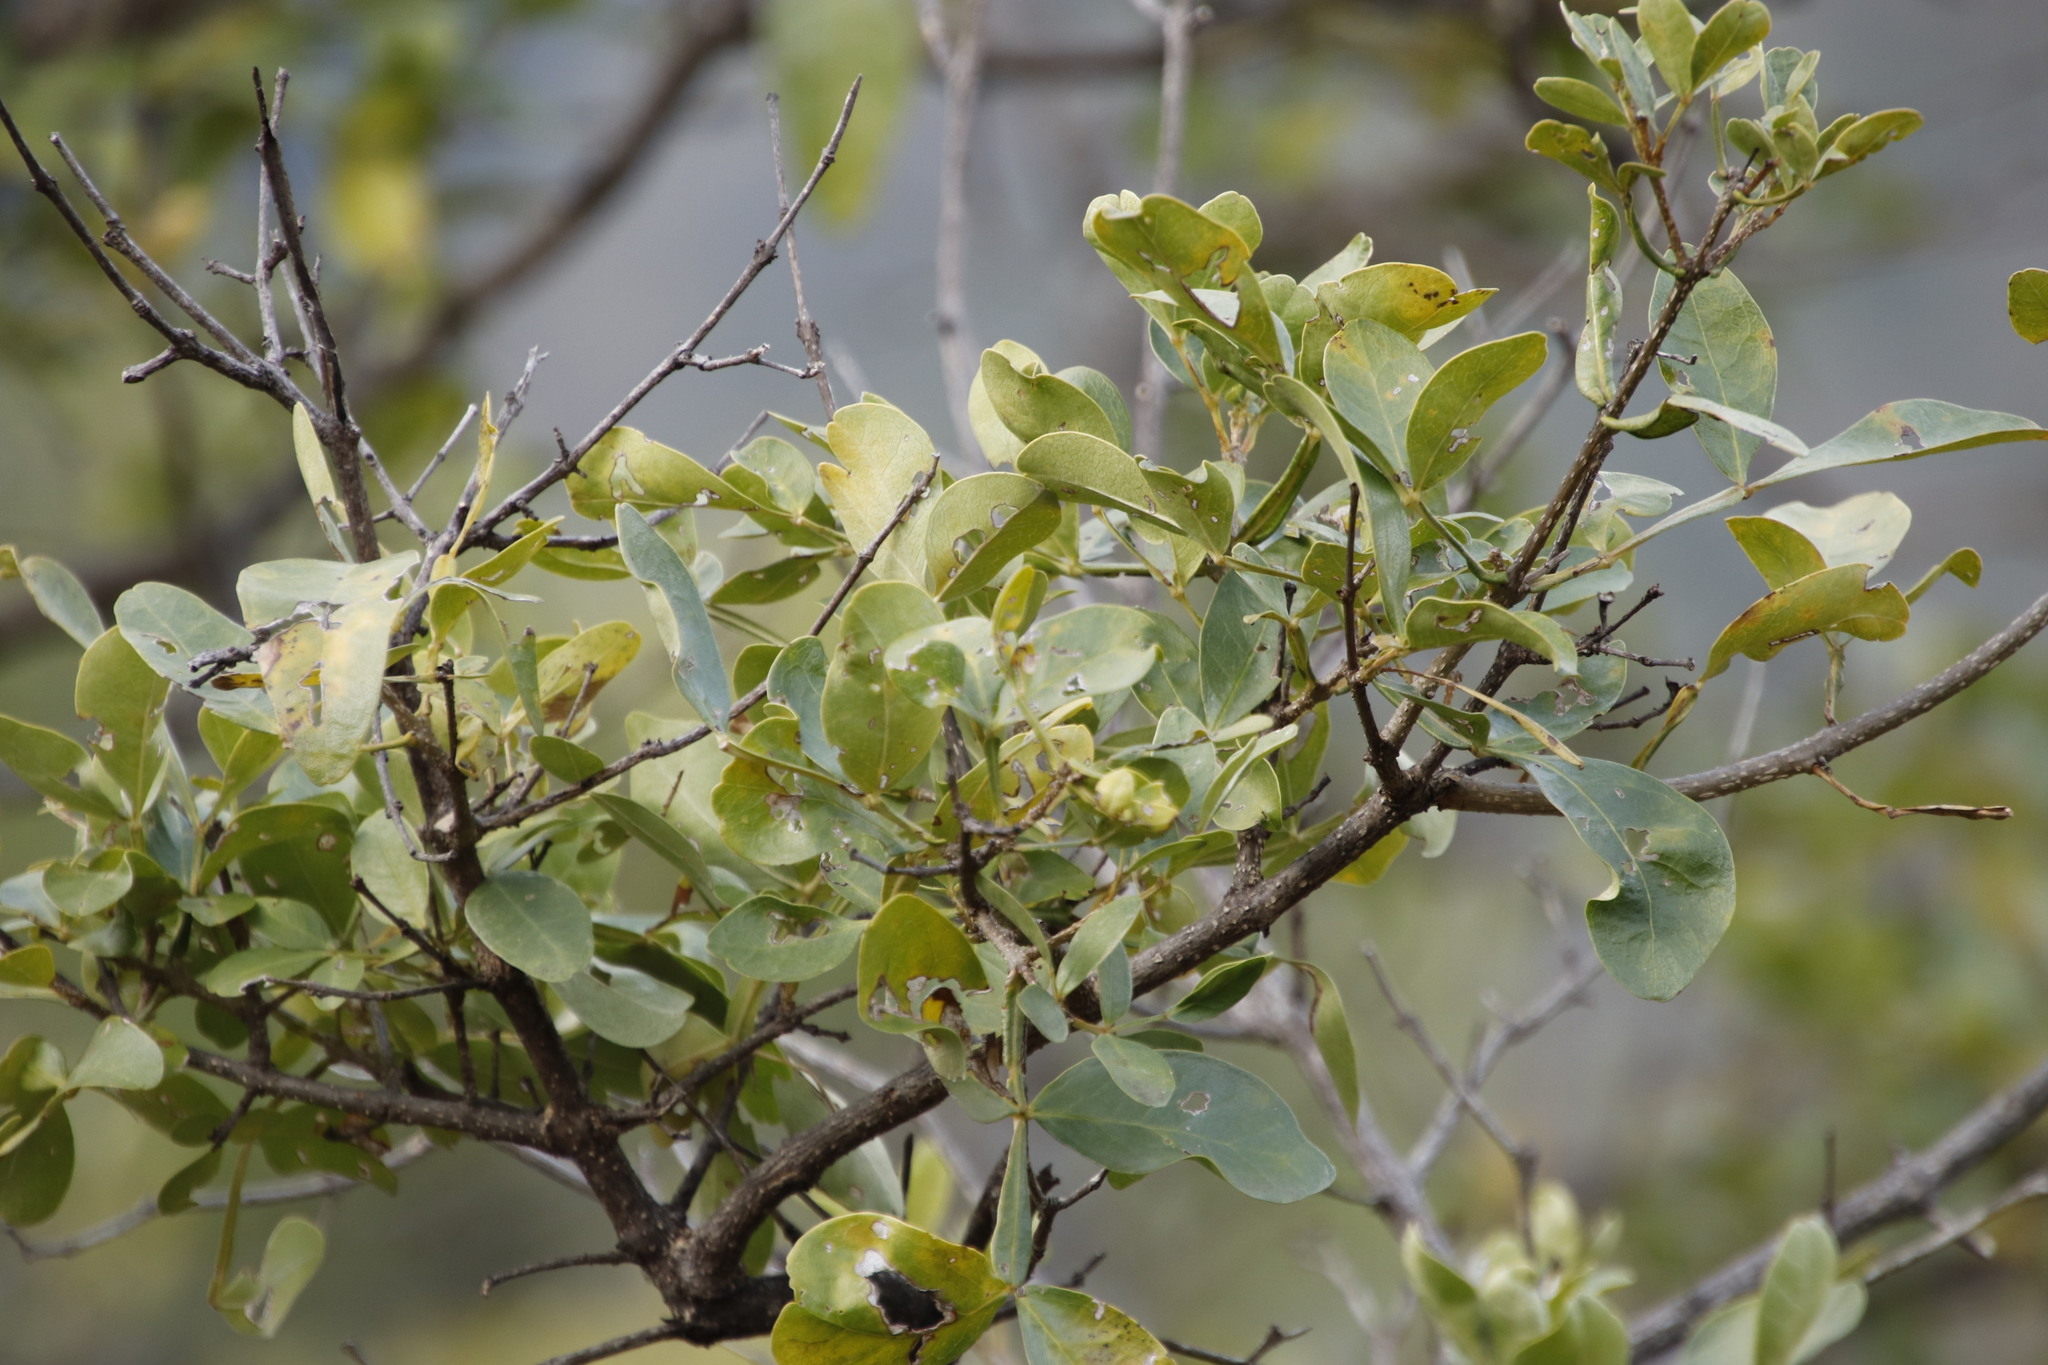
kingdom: Plantae
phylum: Tracheophyta
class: Magnoliopsida
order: Lamiales
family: Oleaceae
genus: Schrebera
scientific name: Schrebera alata
